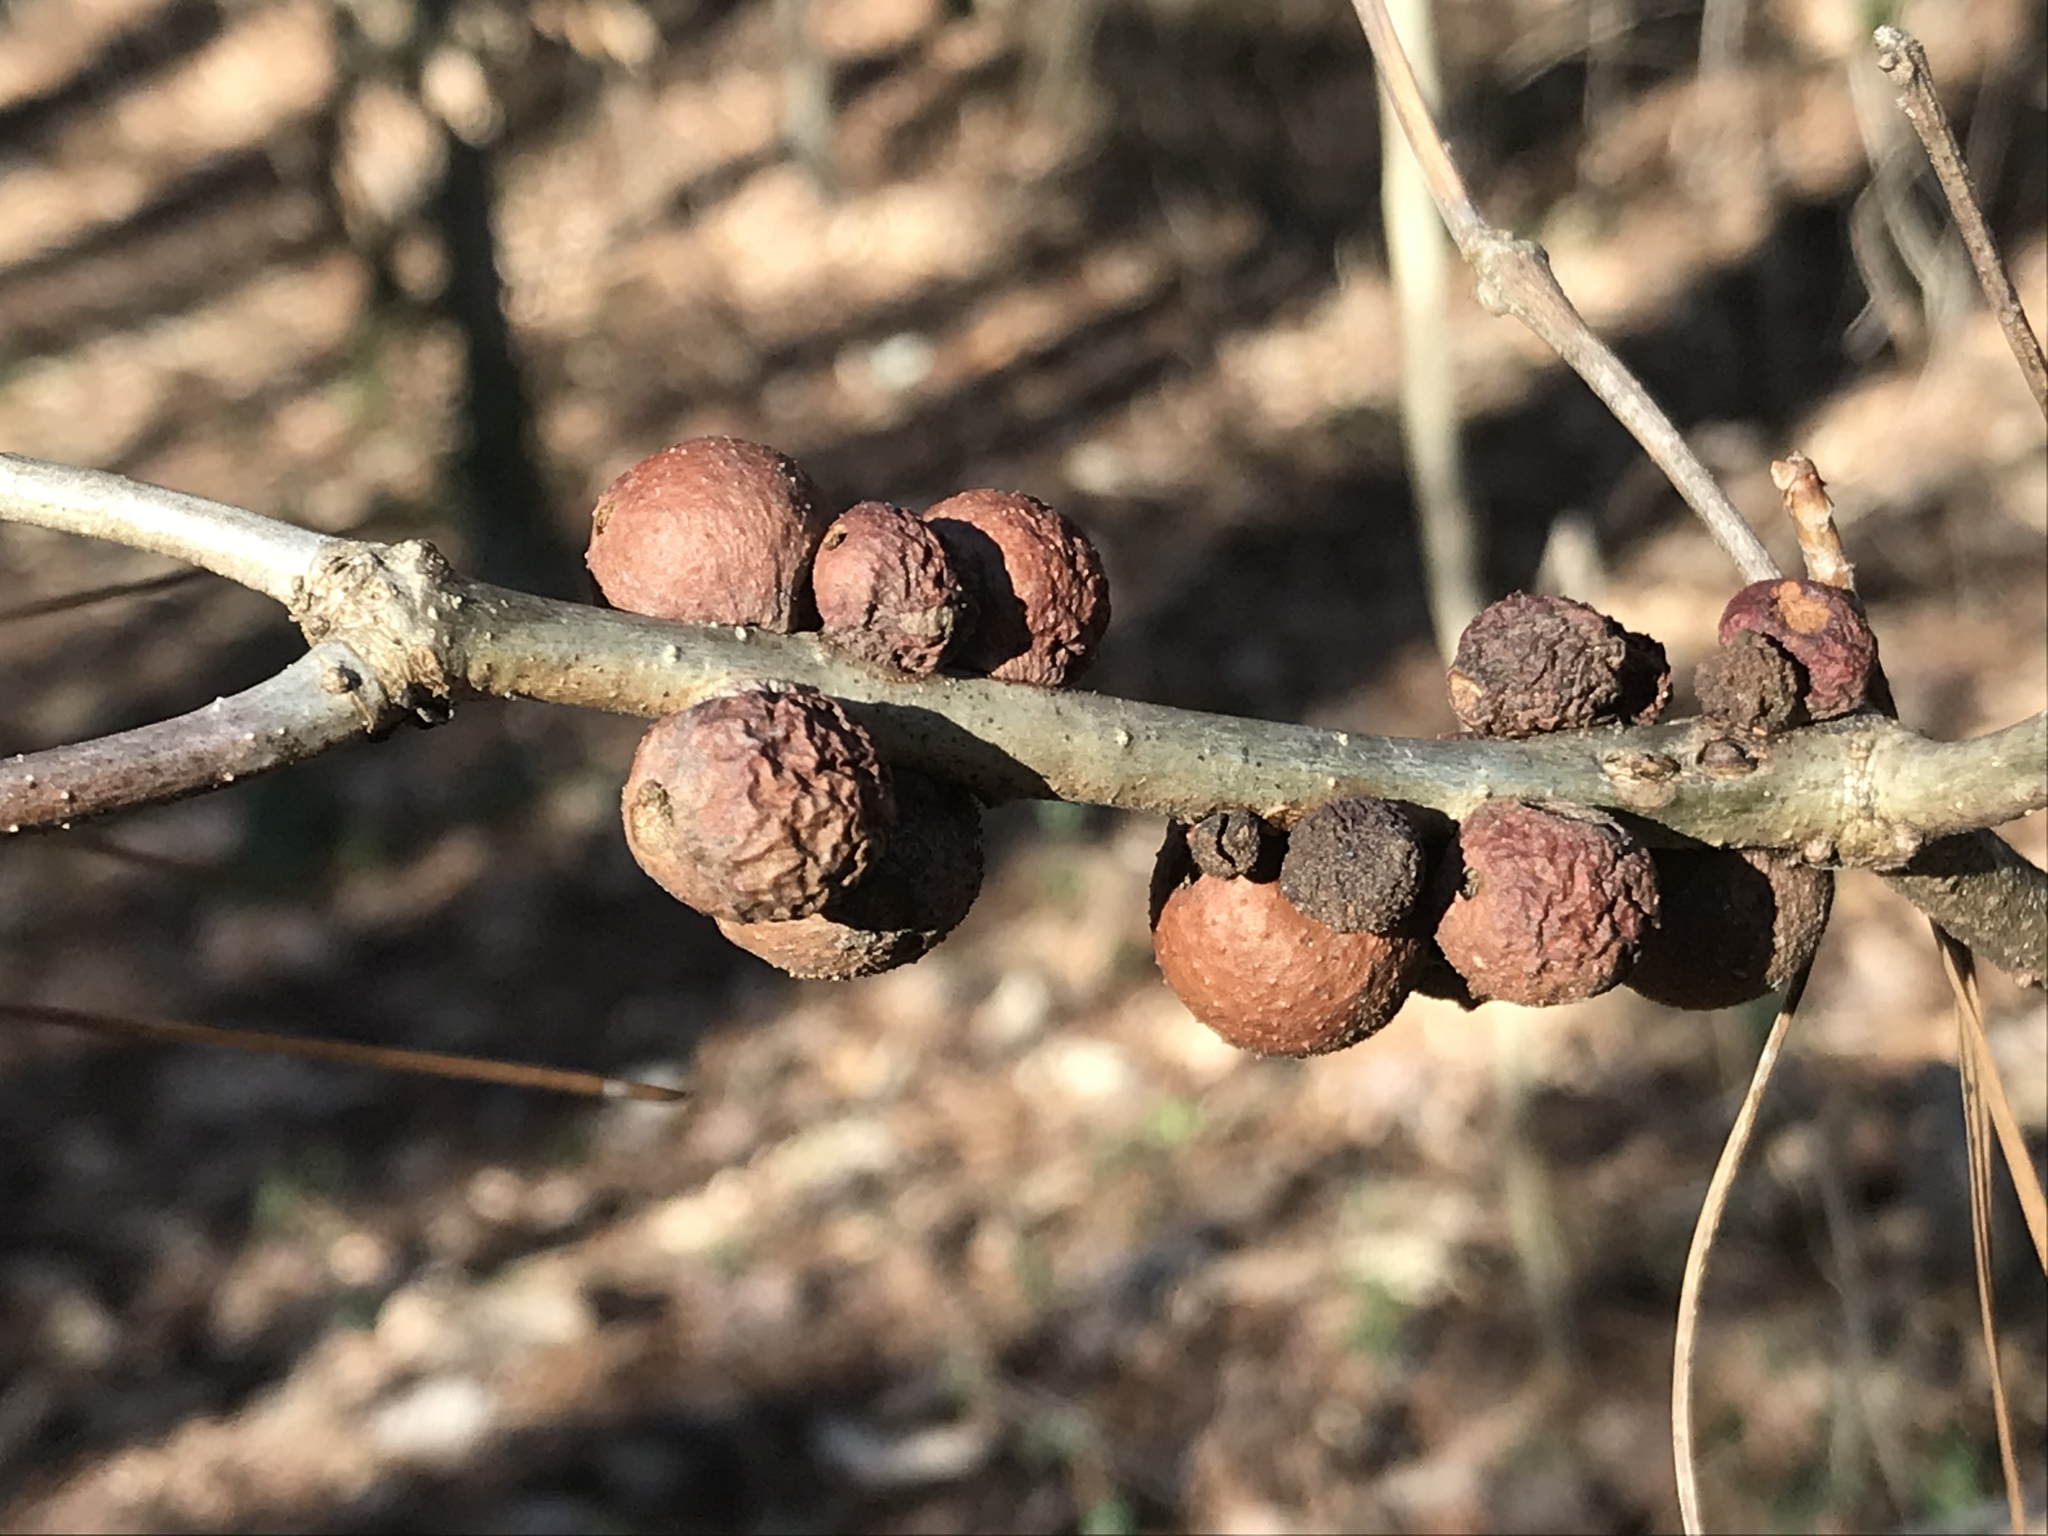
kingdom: Animalia
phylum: Arthropoda
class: Insecta
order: Hymenoptera
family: Cynipidae
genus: Disholcaspis
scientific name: Disholcaspis quercusglobulus
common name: Round bullet gall wasp
